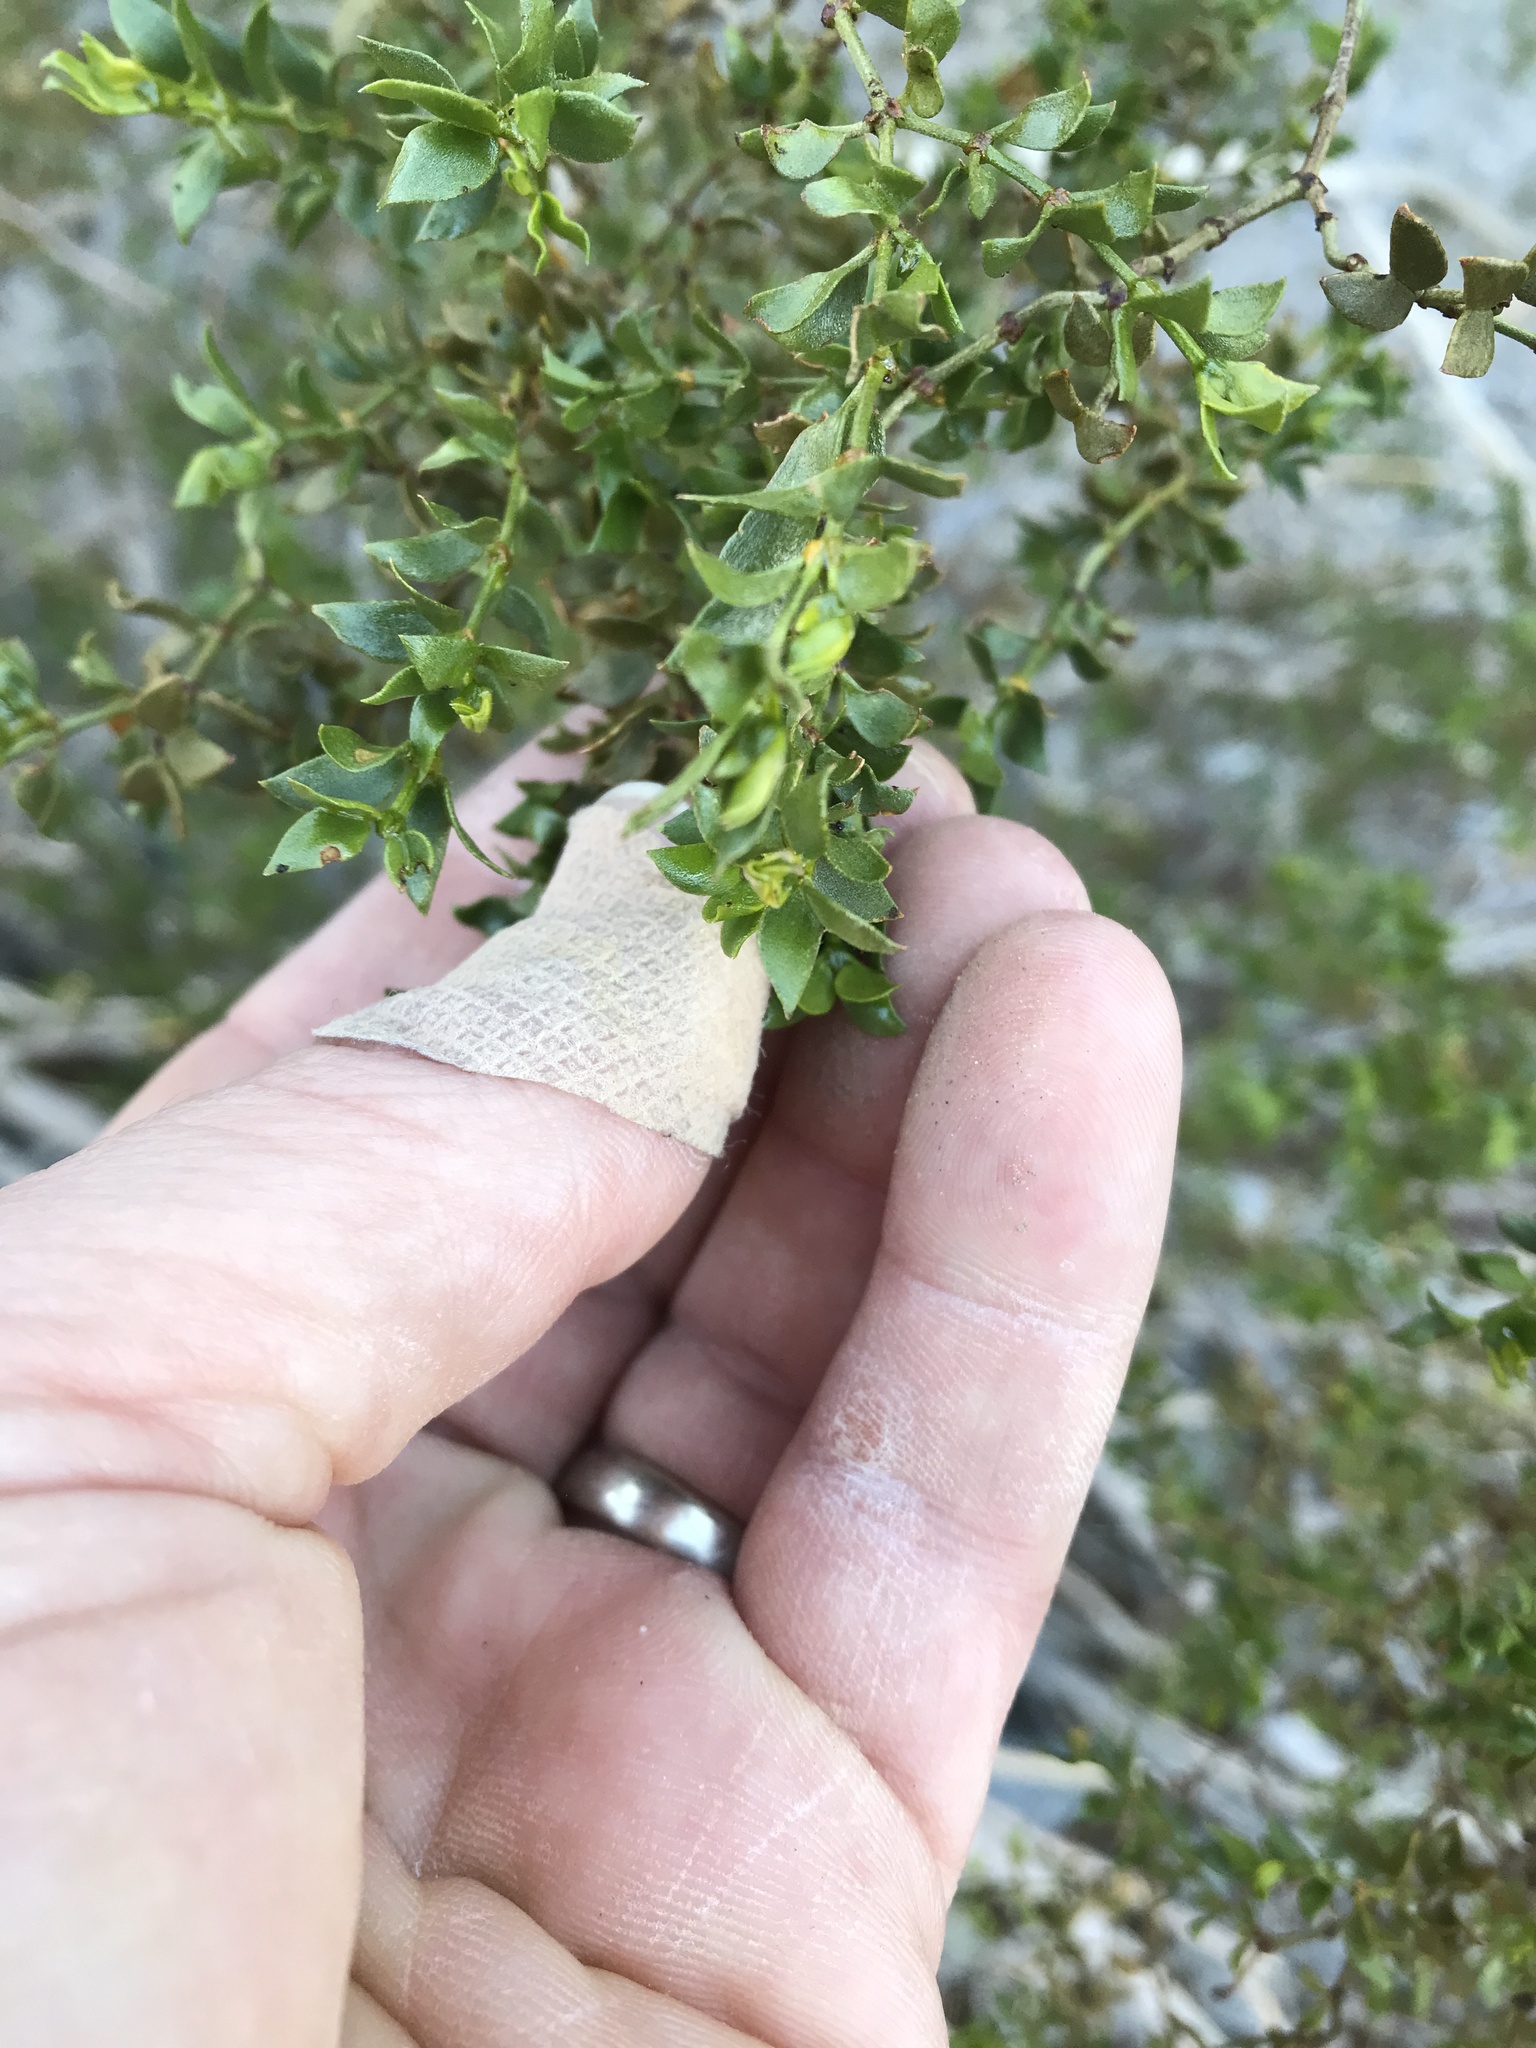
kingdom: Plantae
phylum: Tracheophyta
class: Magnoliopsida
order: Zygophyllales
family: Zygophyllaceae
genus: Larrea
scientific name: Larrea tridentata
